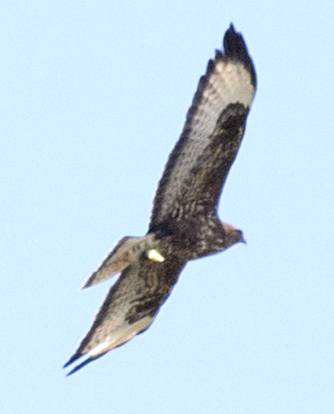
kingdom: Animalia
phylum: Chordata
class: Aves
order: Accipitriformes
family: Accipitridae
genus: Buteo
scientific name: Buteo buteo
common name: Common buzzard
